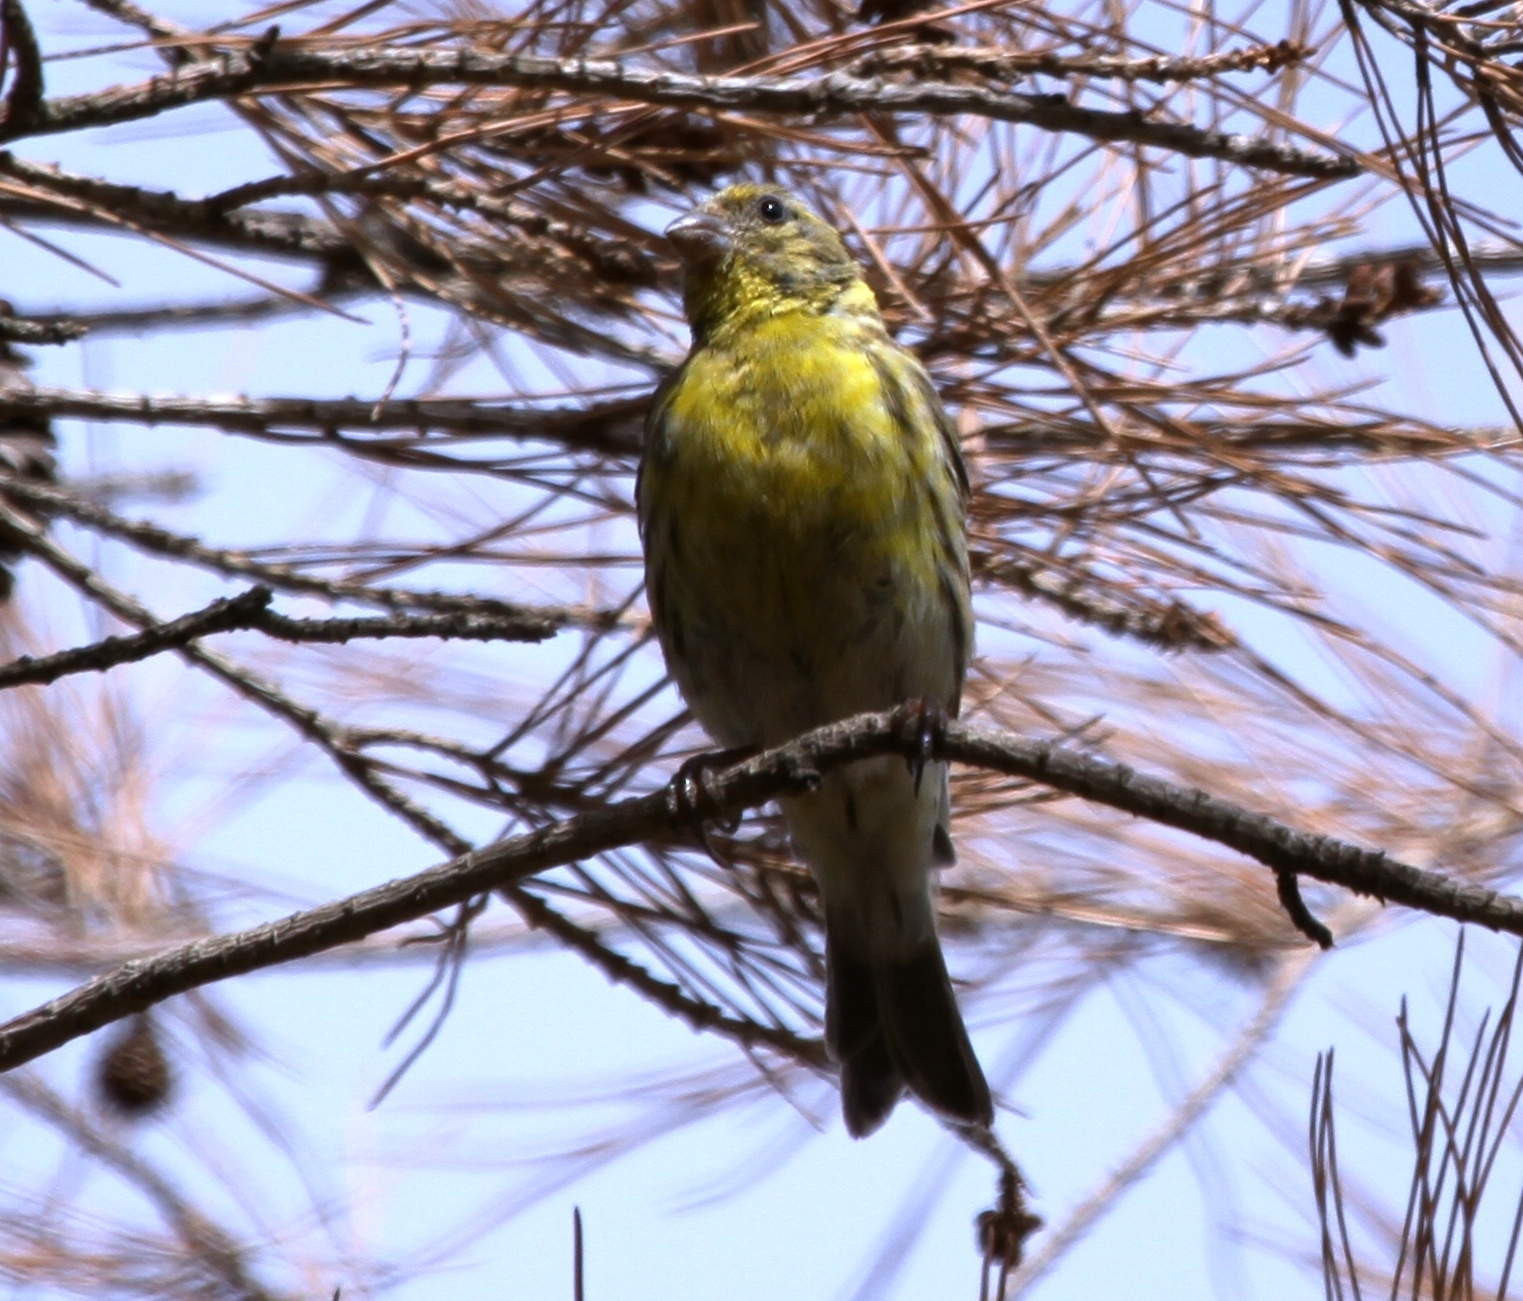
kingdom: Animalia
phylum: Chordata
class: Aves
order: Passeriformes
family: Fringillidae
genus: Serinus
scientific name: Serinus serinus
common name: European serin
